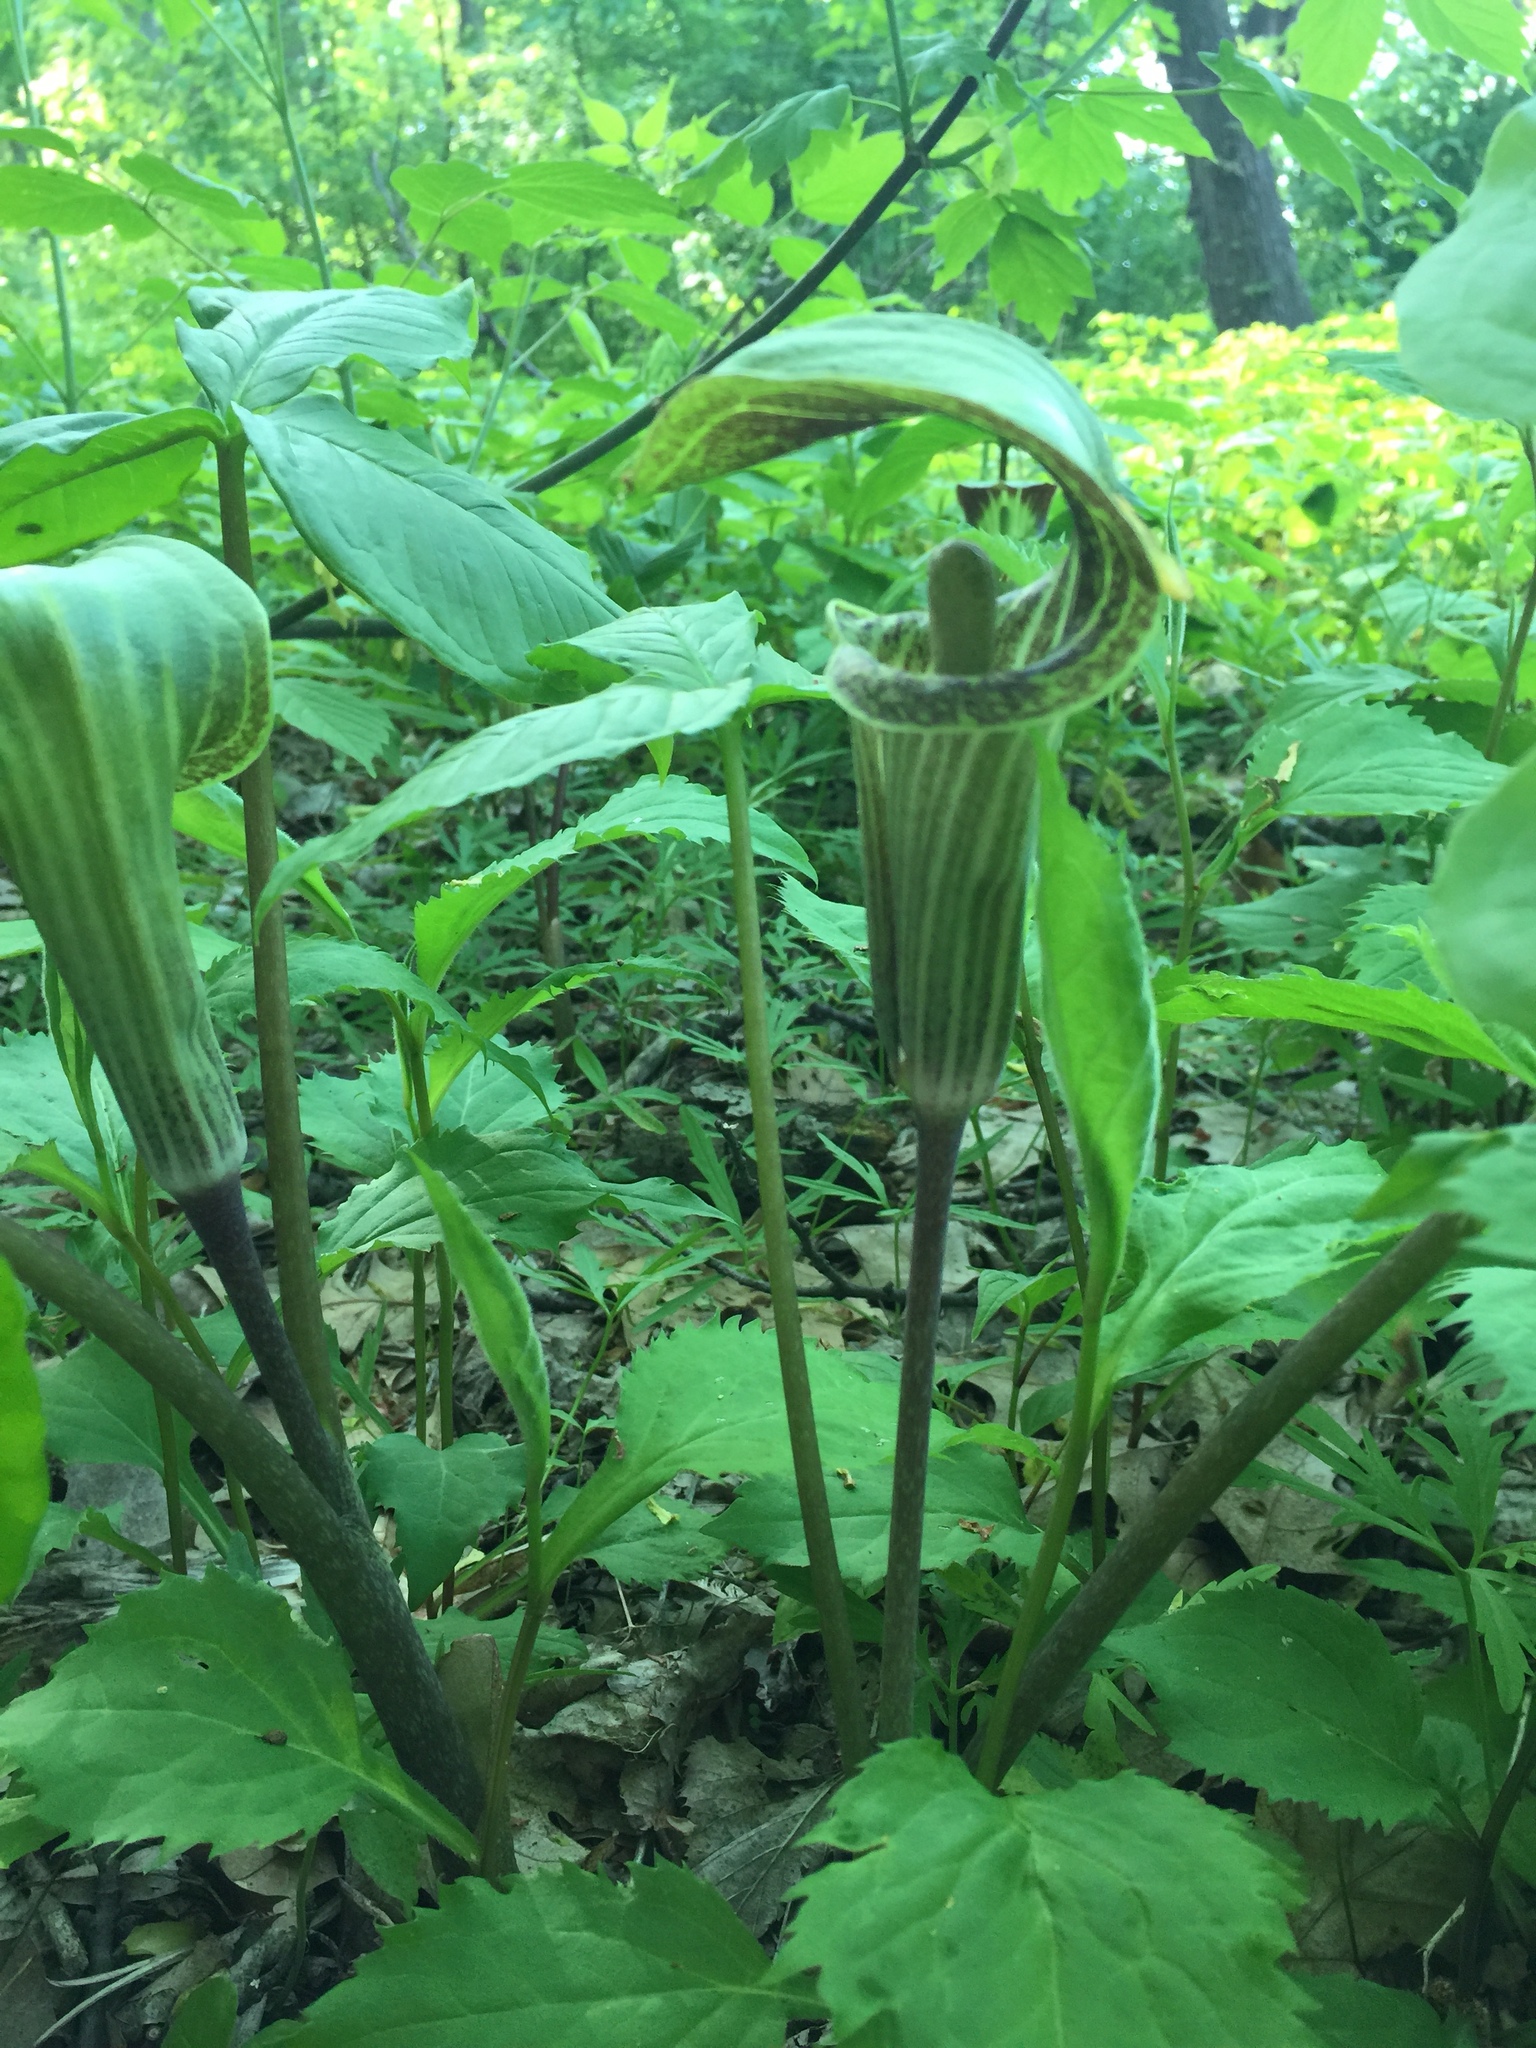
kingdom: Plantae
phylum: Tracheophyta
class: Liliopsida
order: Alismatales
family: Araceae
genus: Arisaema
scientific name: Arisaema triphyllum
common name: Jack-in-the-pulpit
